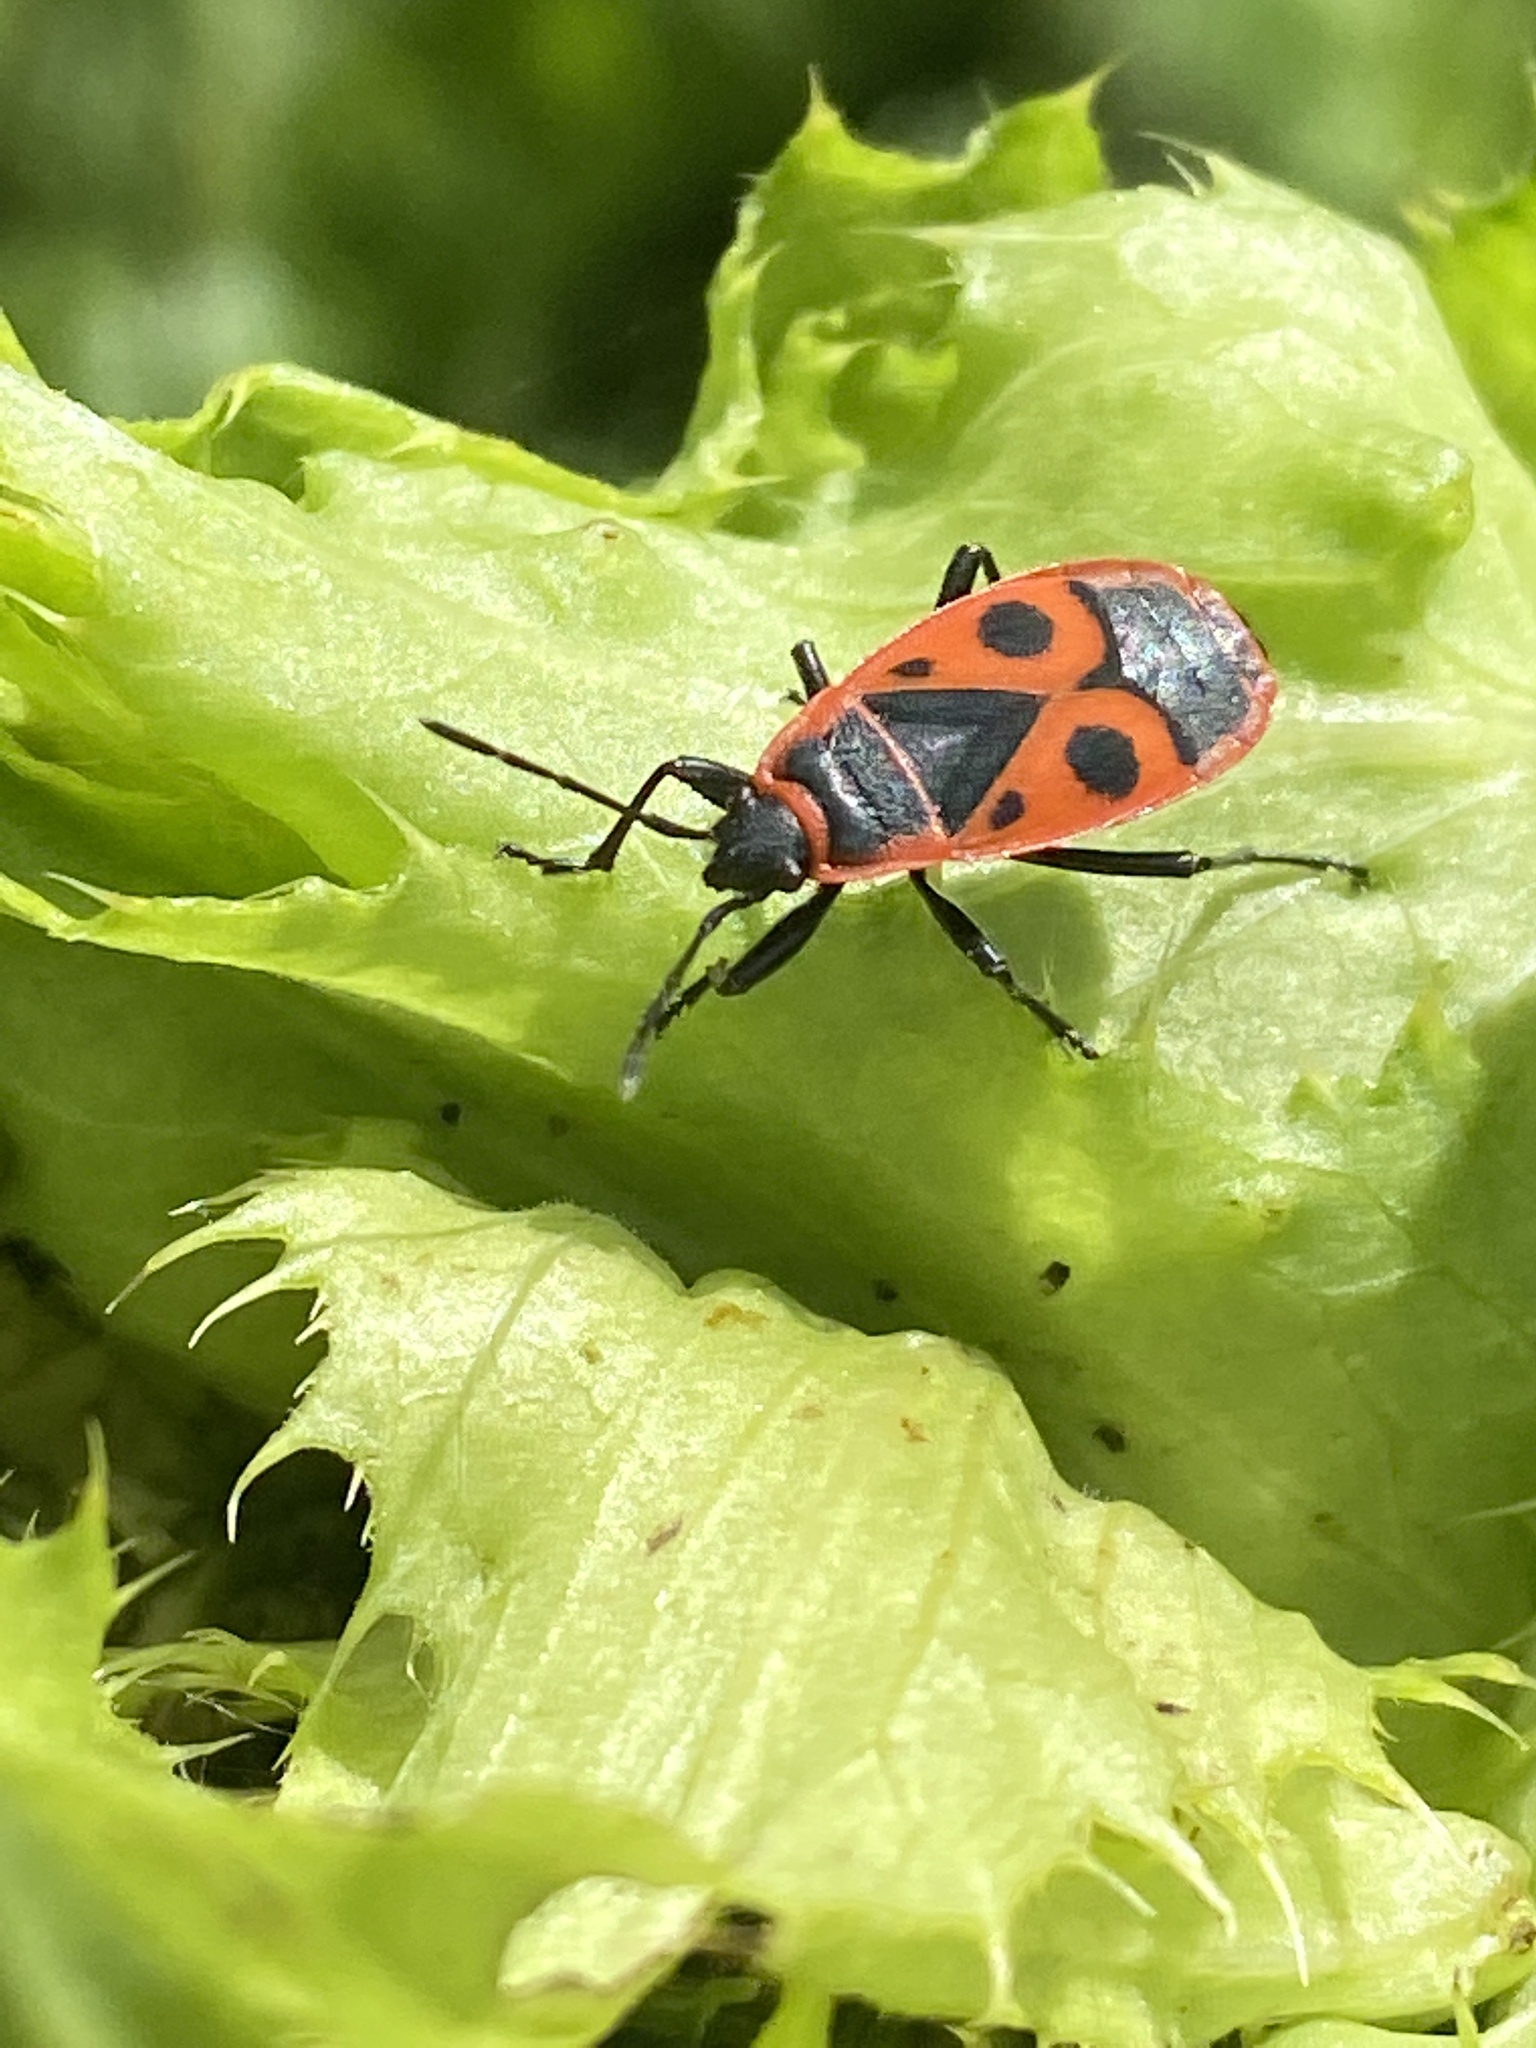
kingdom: Animalia
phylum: Arthropoda
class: Insecta
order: Hemiptera
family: Pyrrhocoridae
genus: Pyrrhocoris
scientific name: Pyrrhocoris apterus
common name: Firebug
